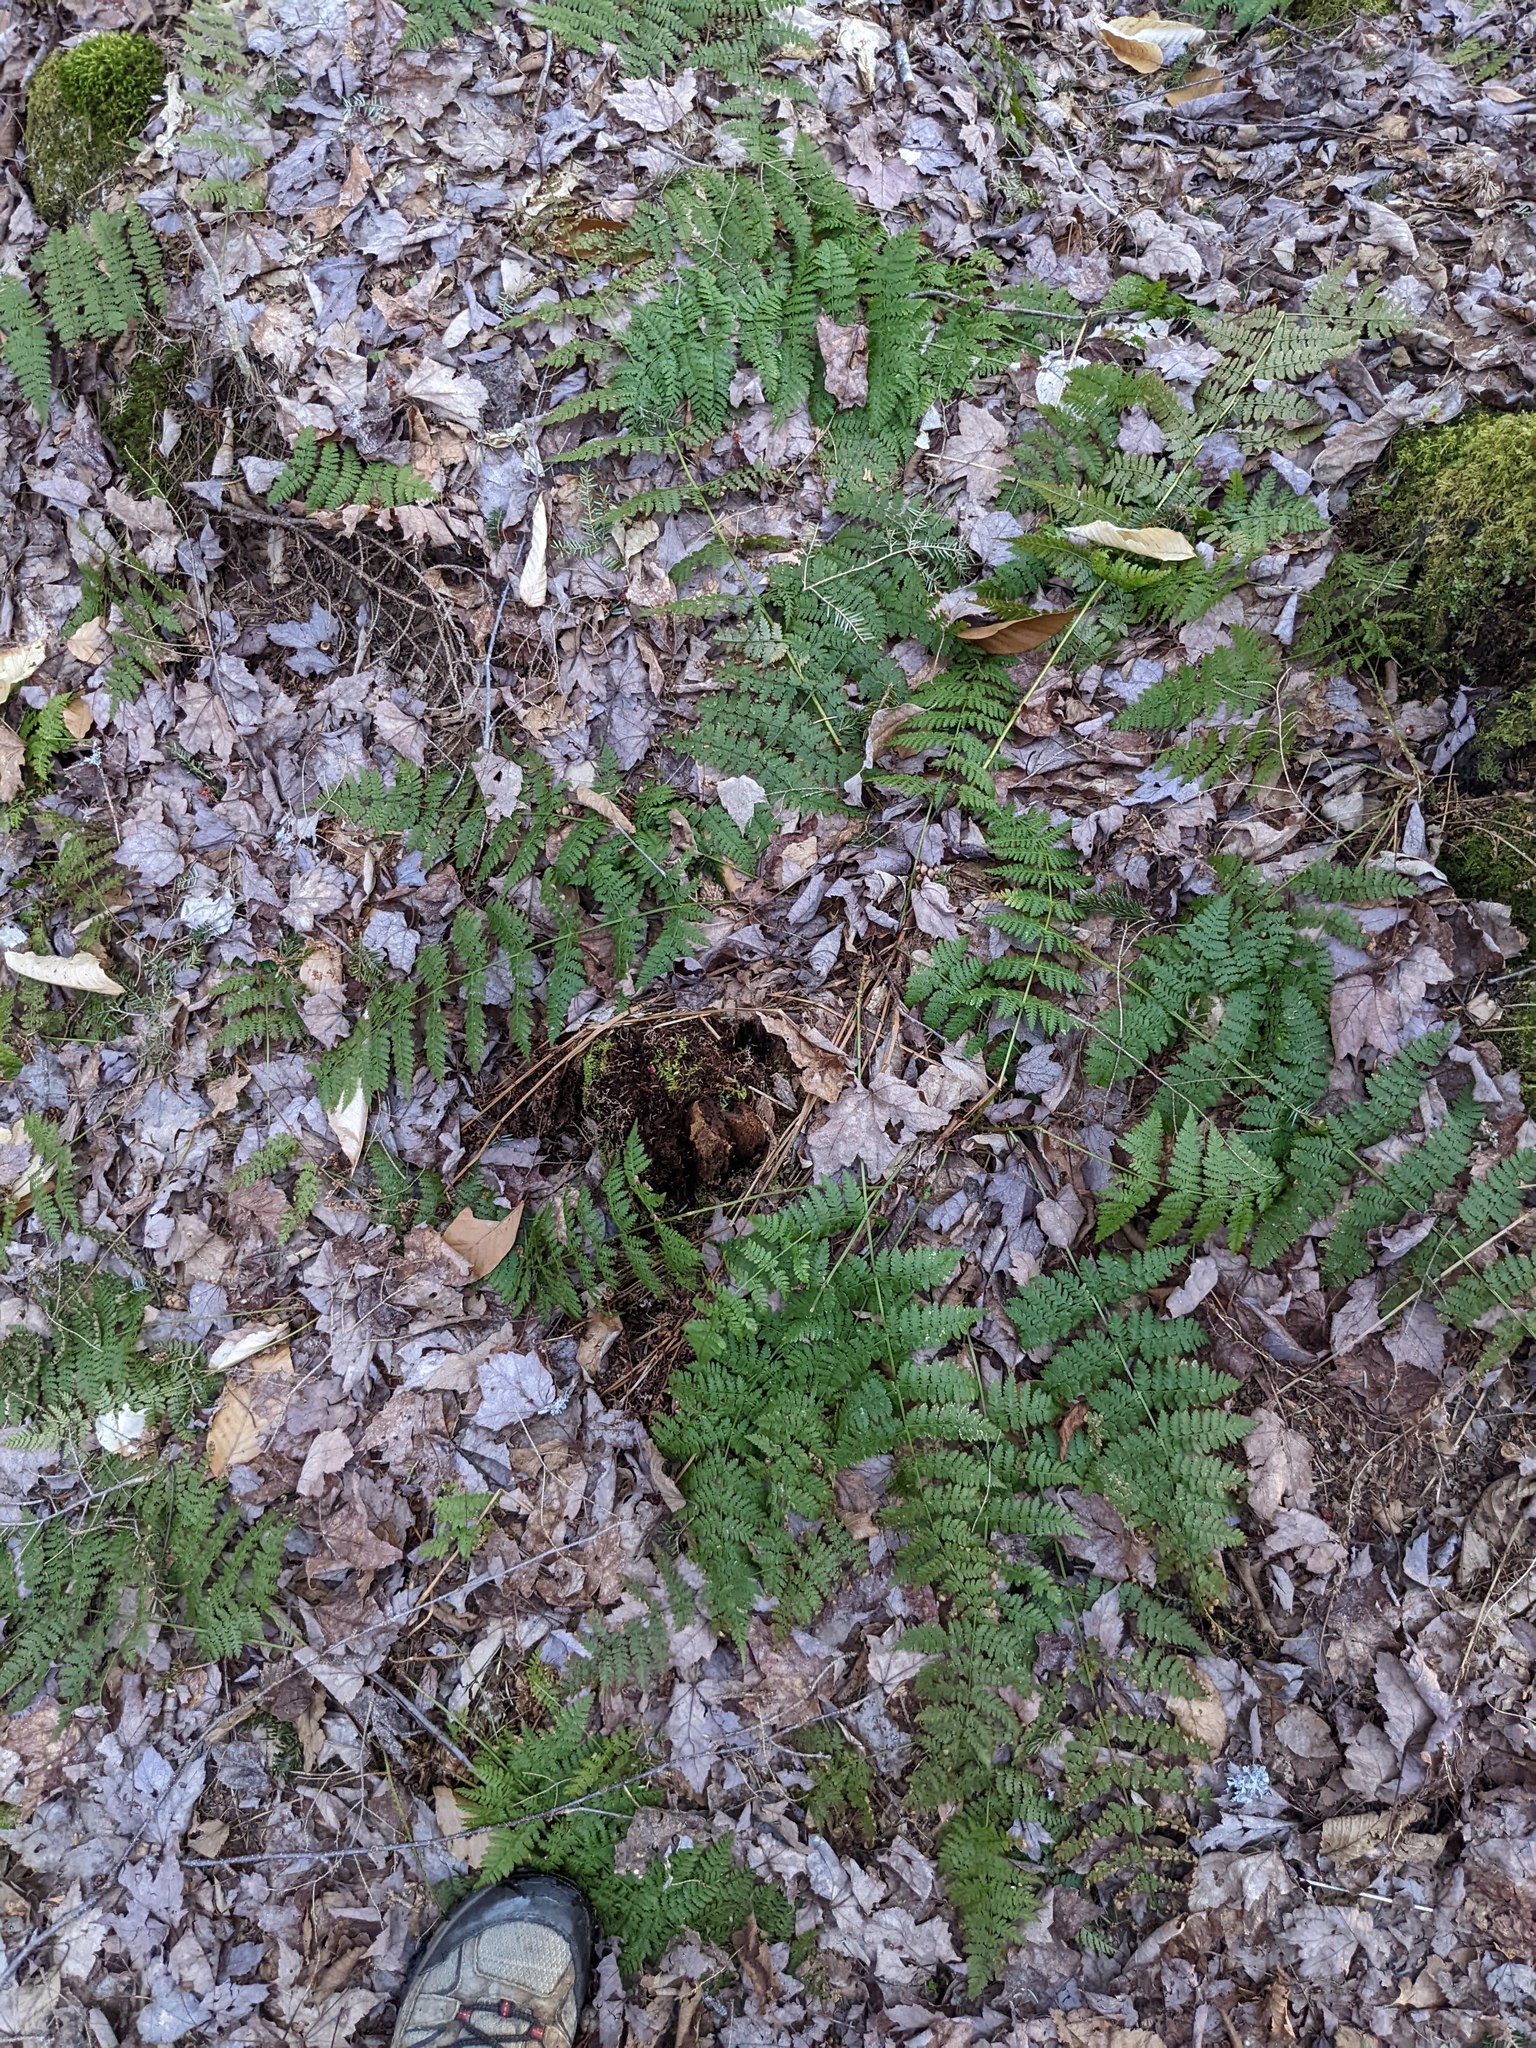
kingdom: Plantae
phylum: Tracheophyta
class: Polypodiopsida
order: Polypodiales
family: Dryopteridaceae
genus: Dryopteris
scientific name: Dryopteris intermedia
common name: Evergreen wood fern
